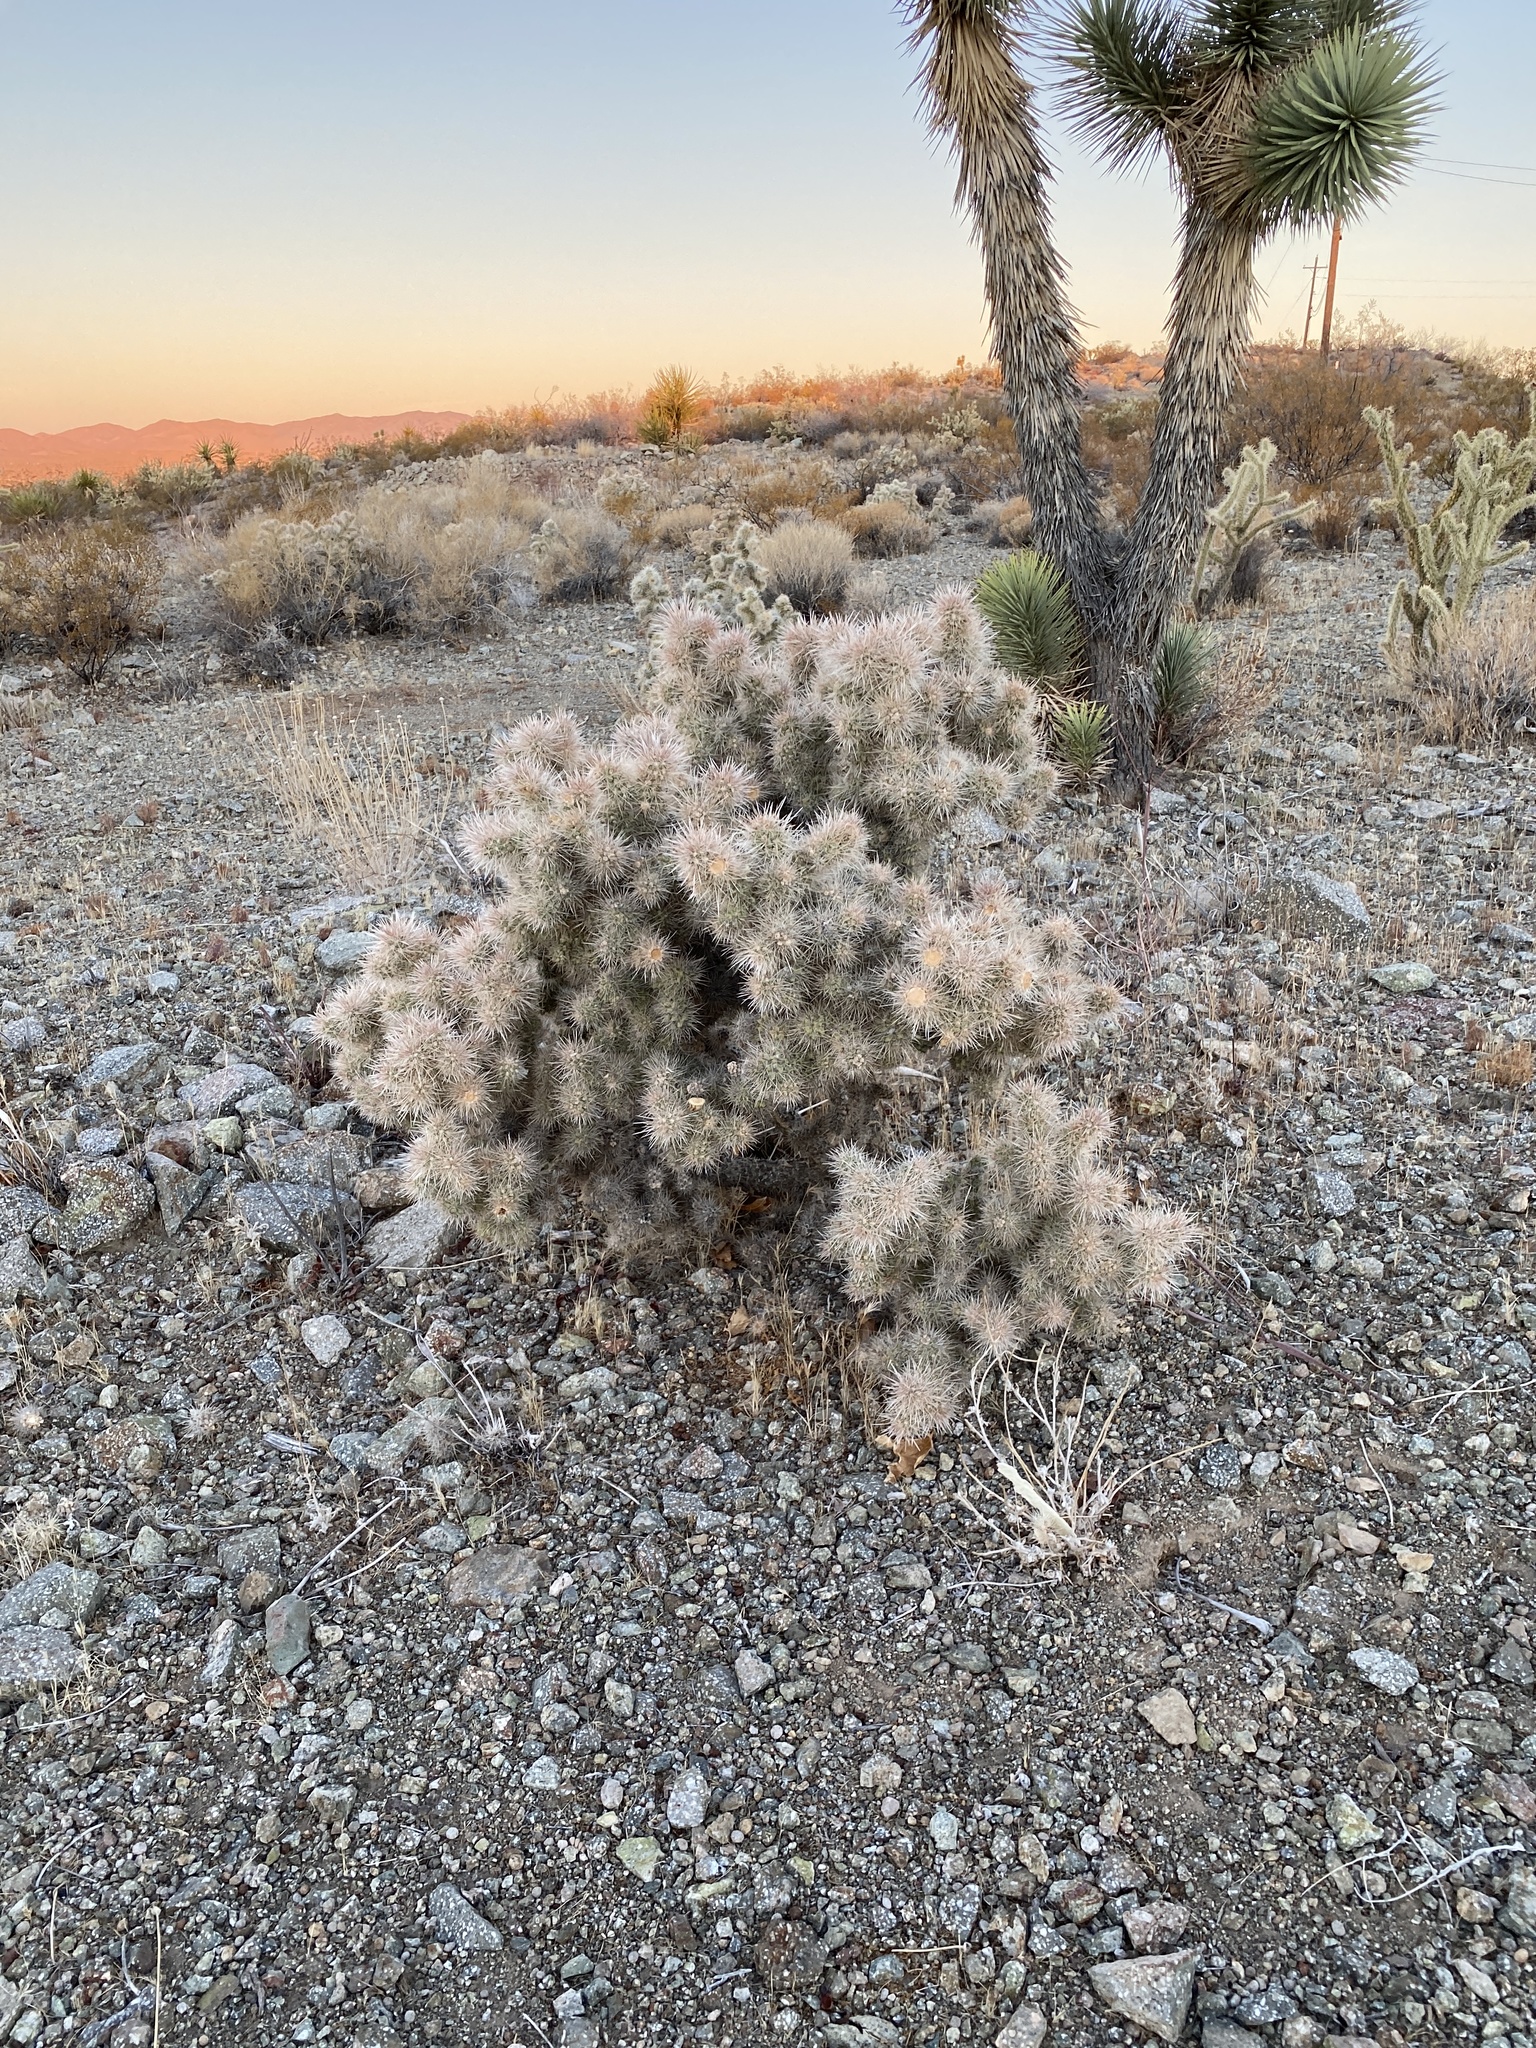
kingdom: Plantae
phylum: Tracheophyta
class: Magnoliopsida
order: Caryophyllales
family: Cactaceae
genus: Cylindropuntia
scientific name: Cylindropuntia echinocarpa
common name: Ground cholla
